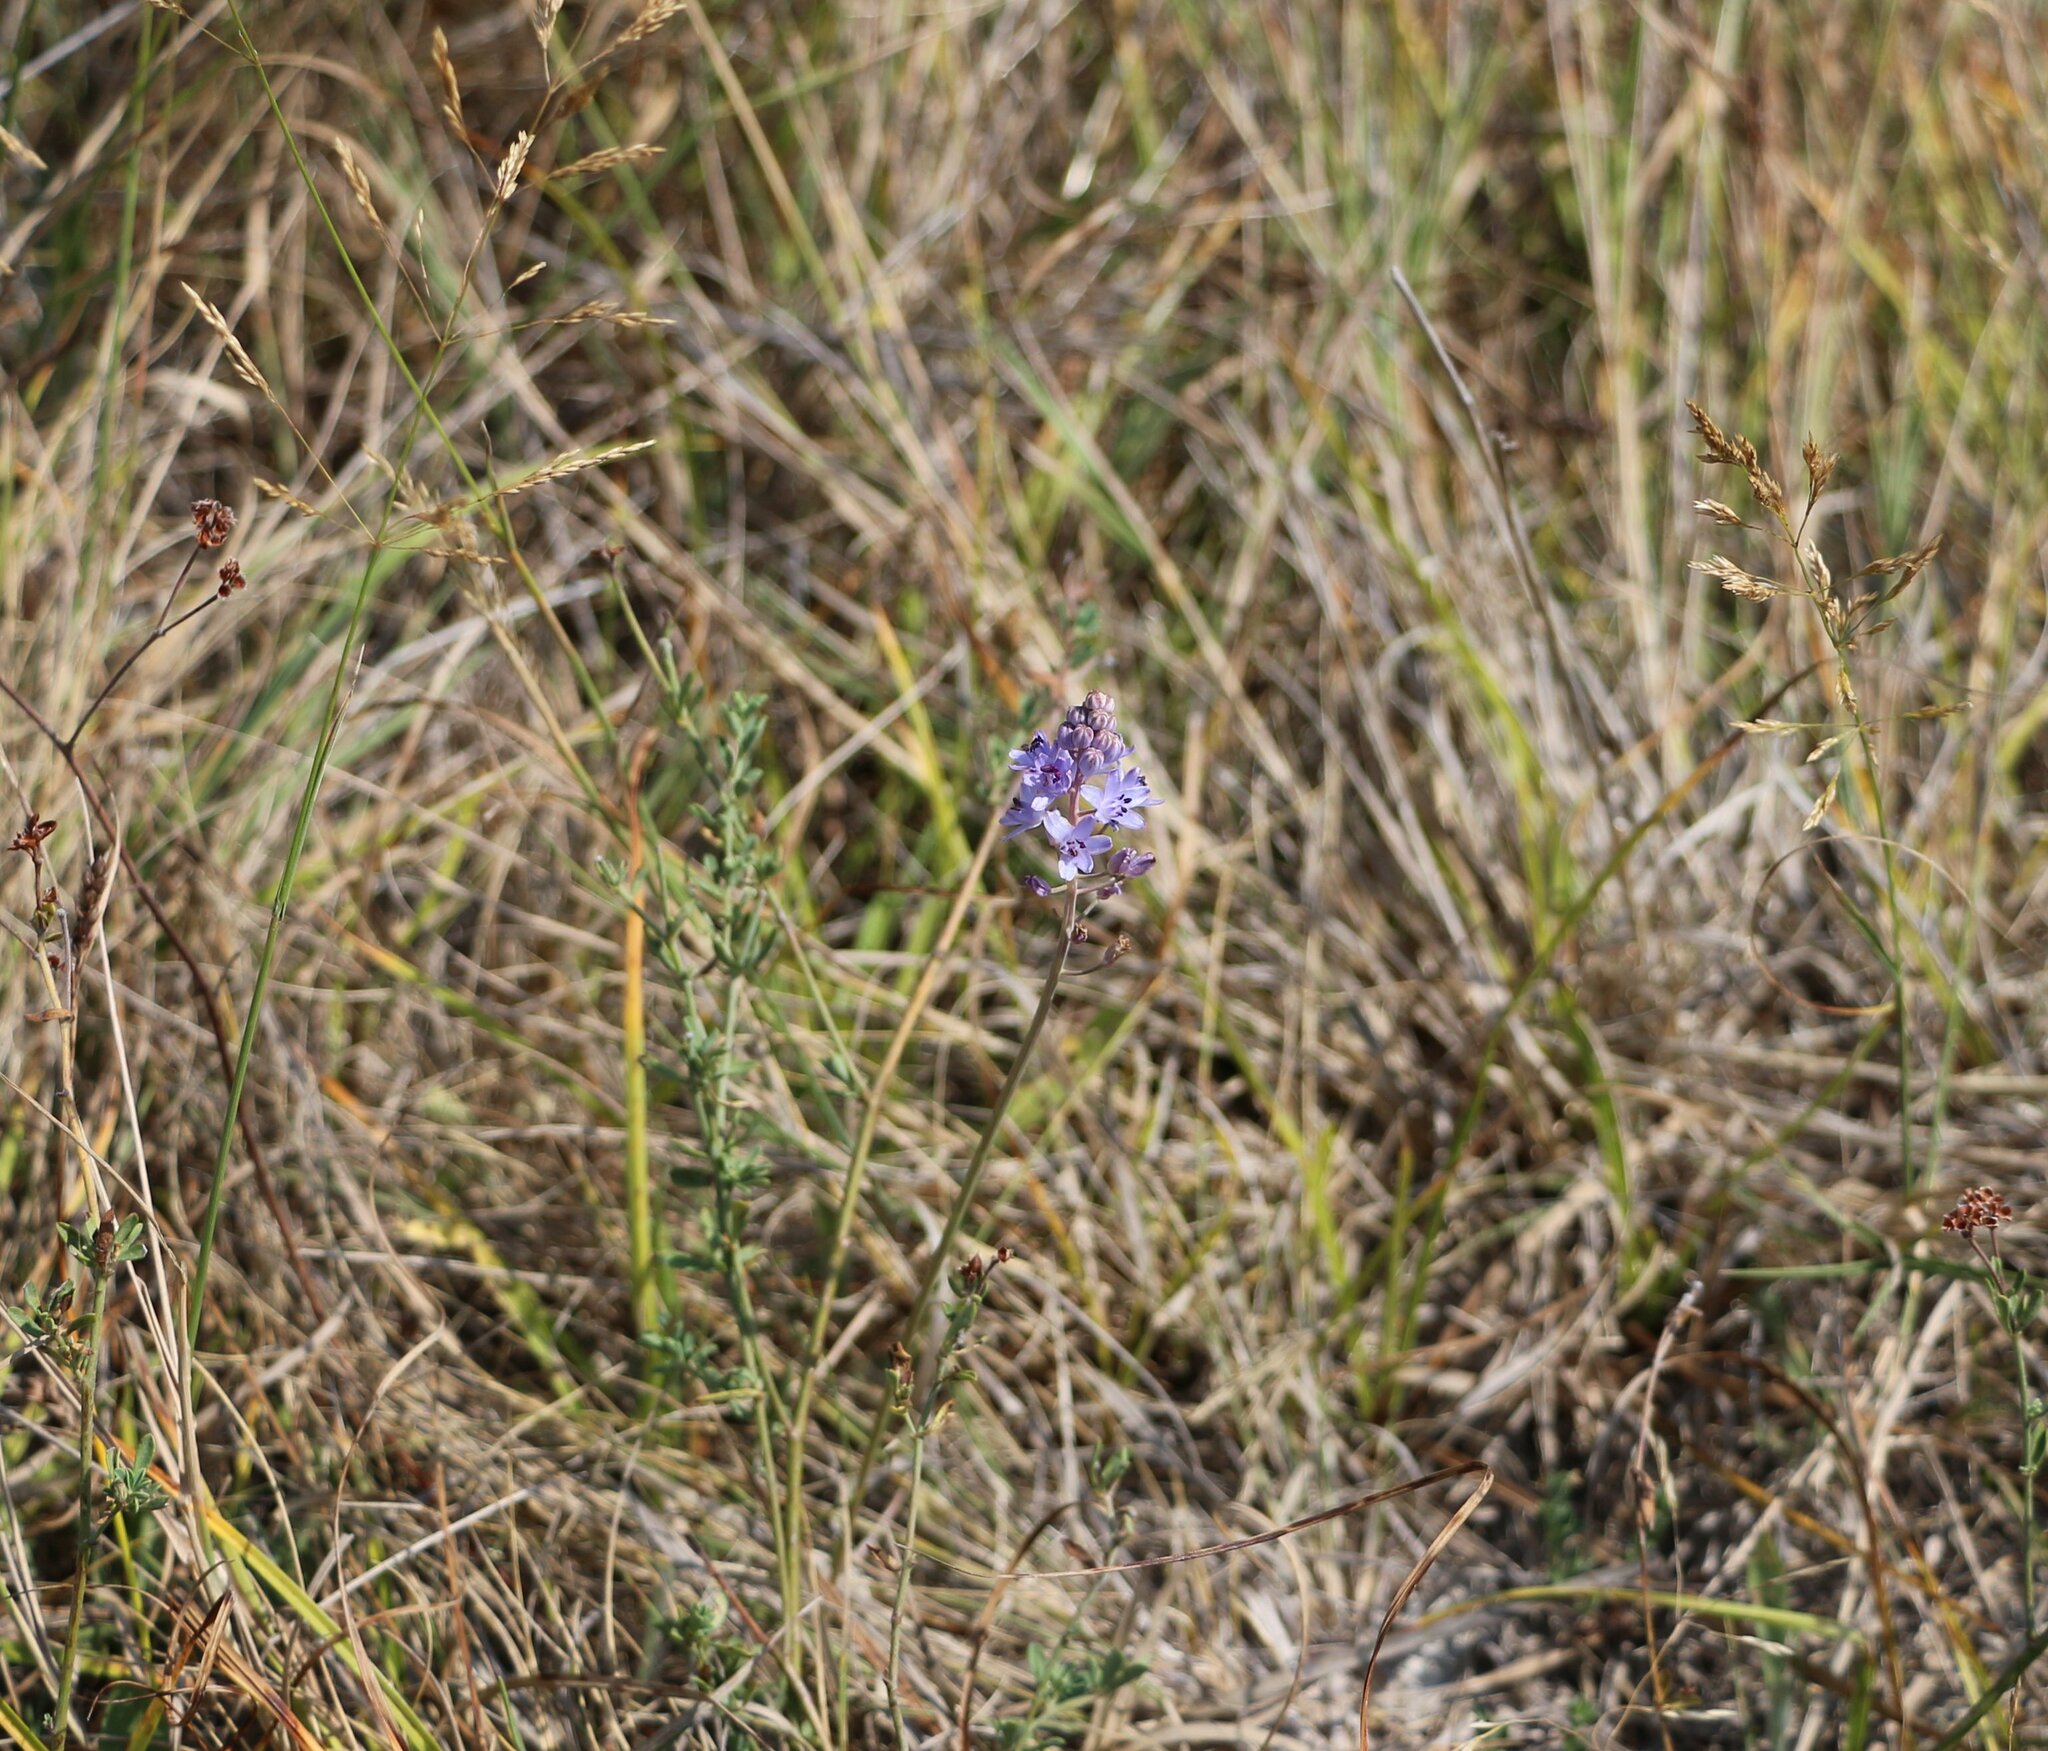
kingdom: Plantae
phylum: Tracheophyta
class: Liliopsida
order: Asparagales
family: Asparagaceae
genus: Prospero
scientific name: Prospero autumnale
